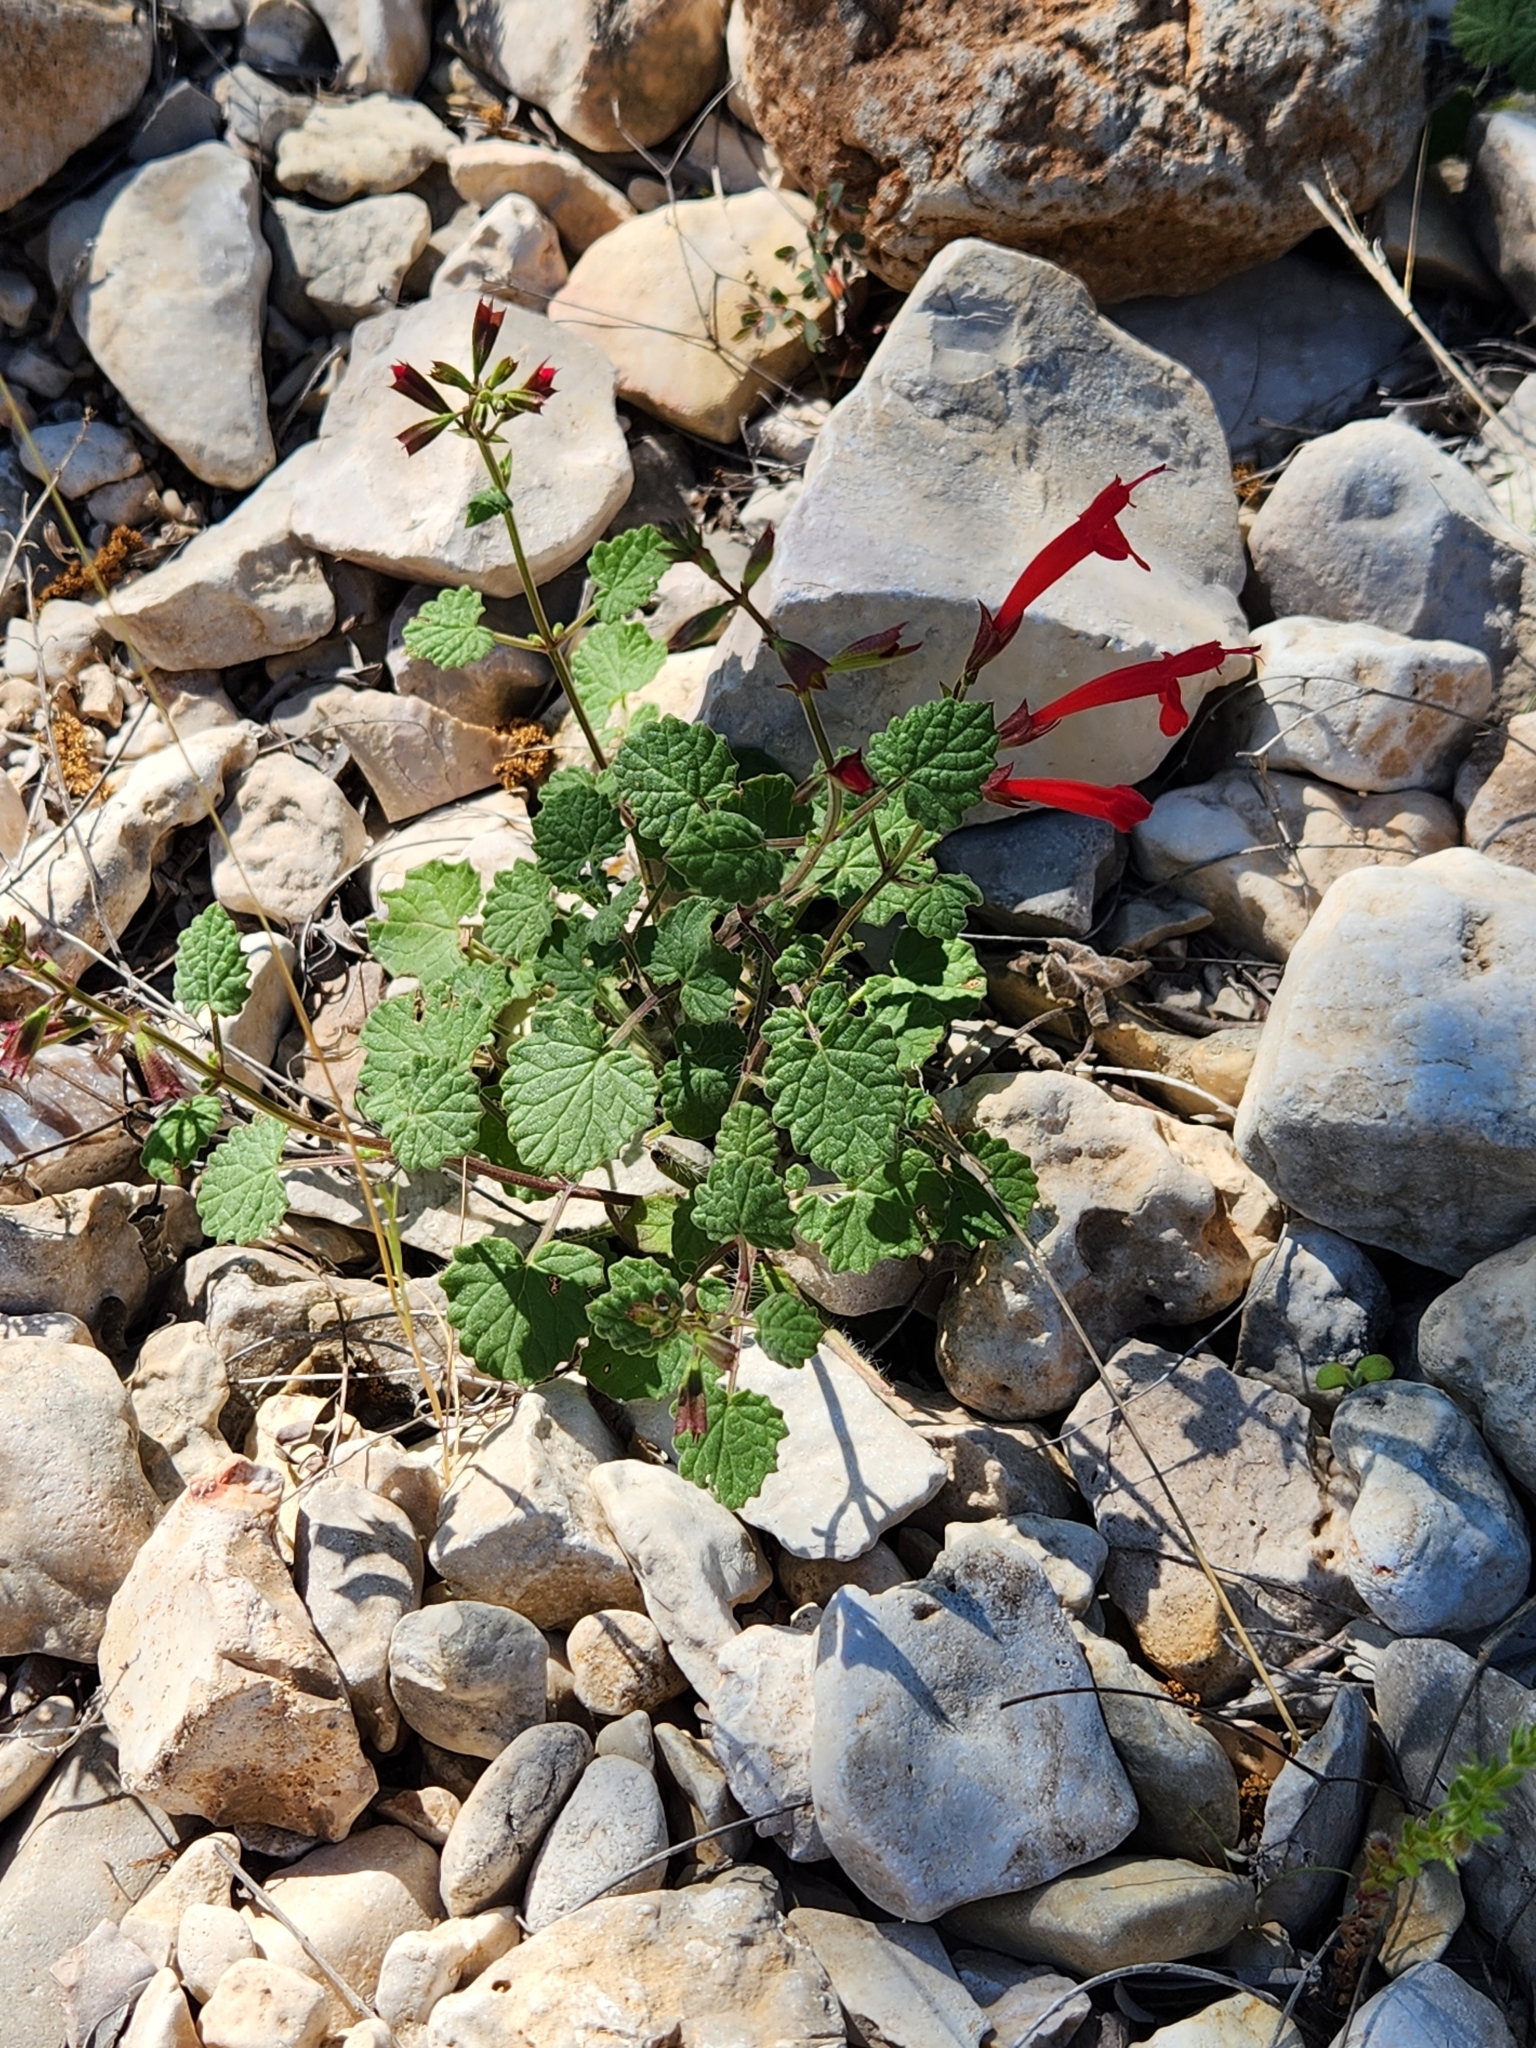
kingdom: Plantae
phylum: Tracheophyta
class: Magnoliopsida
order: Lamiales
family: Lamiaceae
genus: Salvia
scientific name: Salvia roemeriana
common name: Cedar sage
